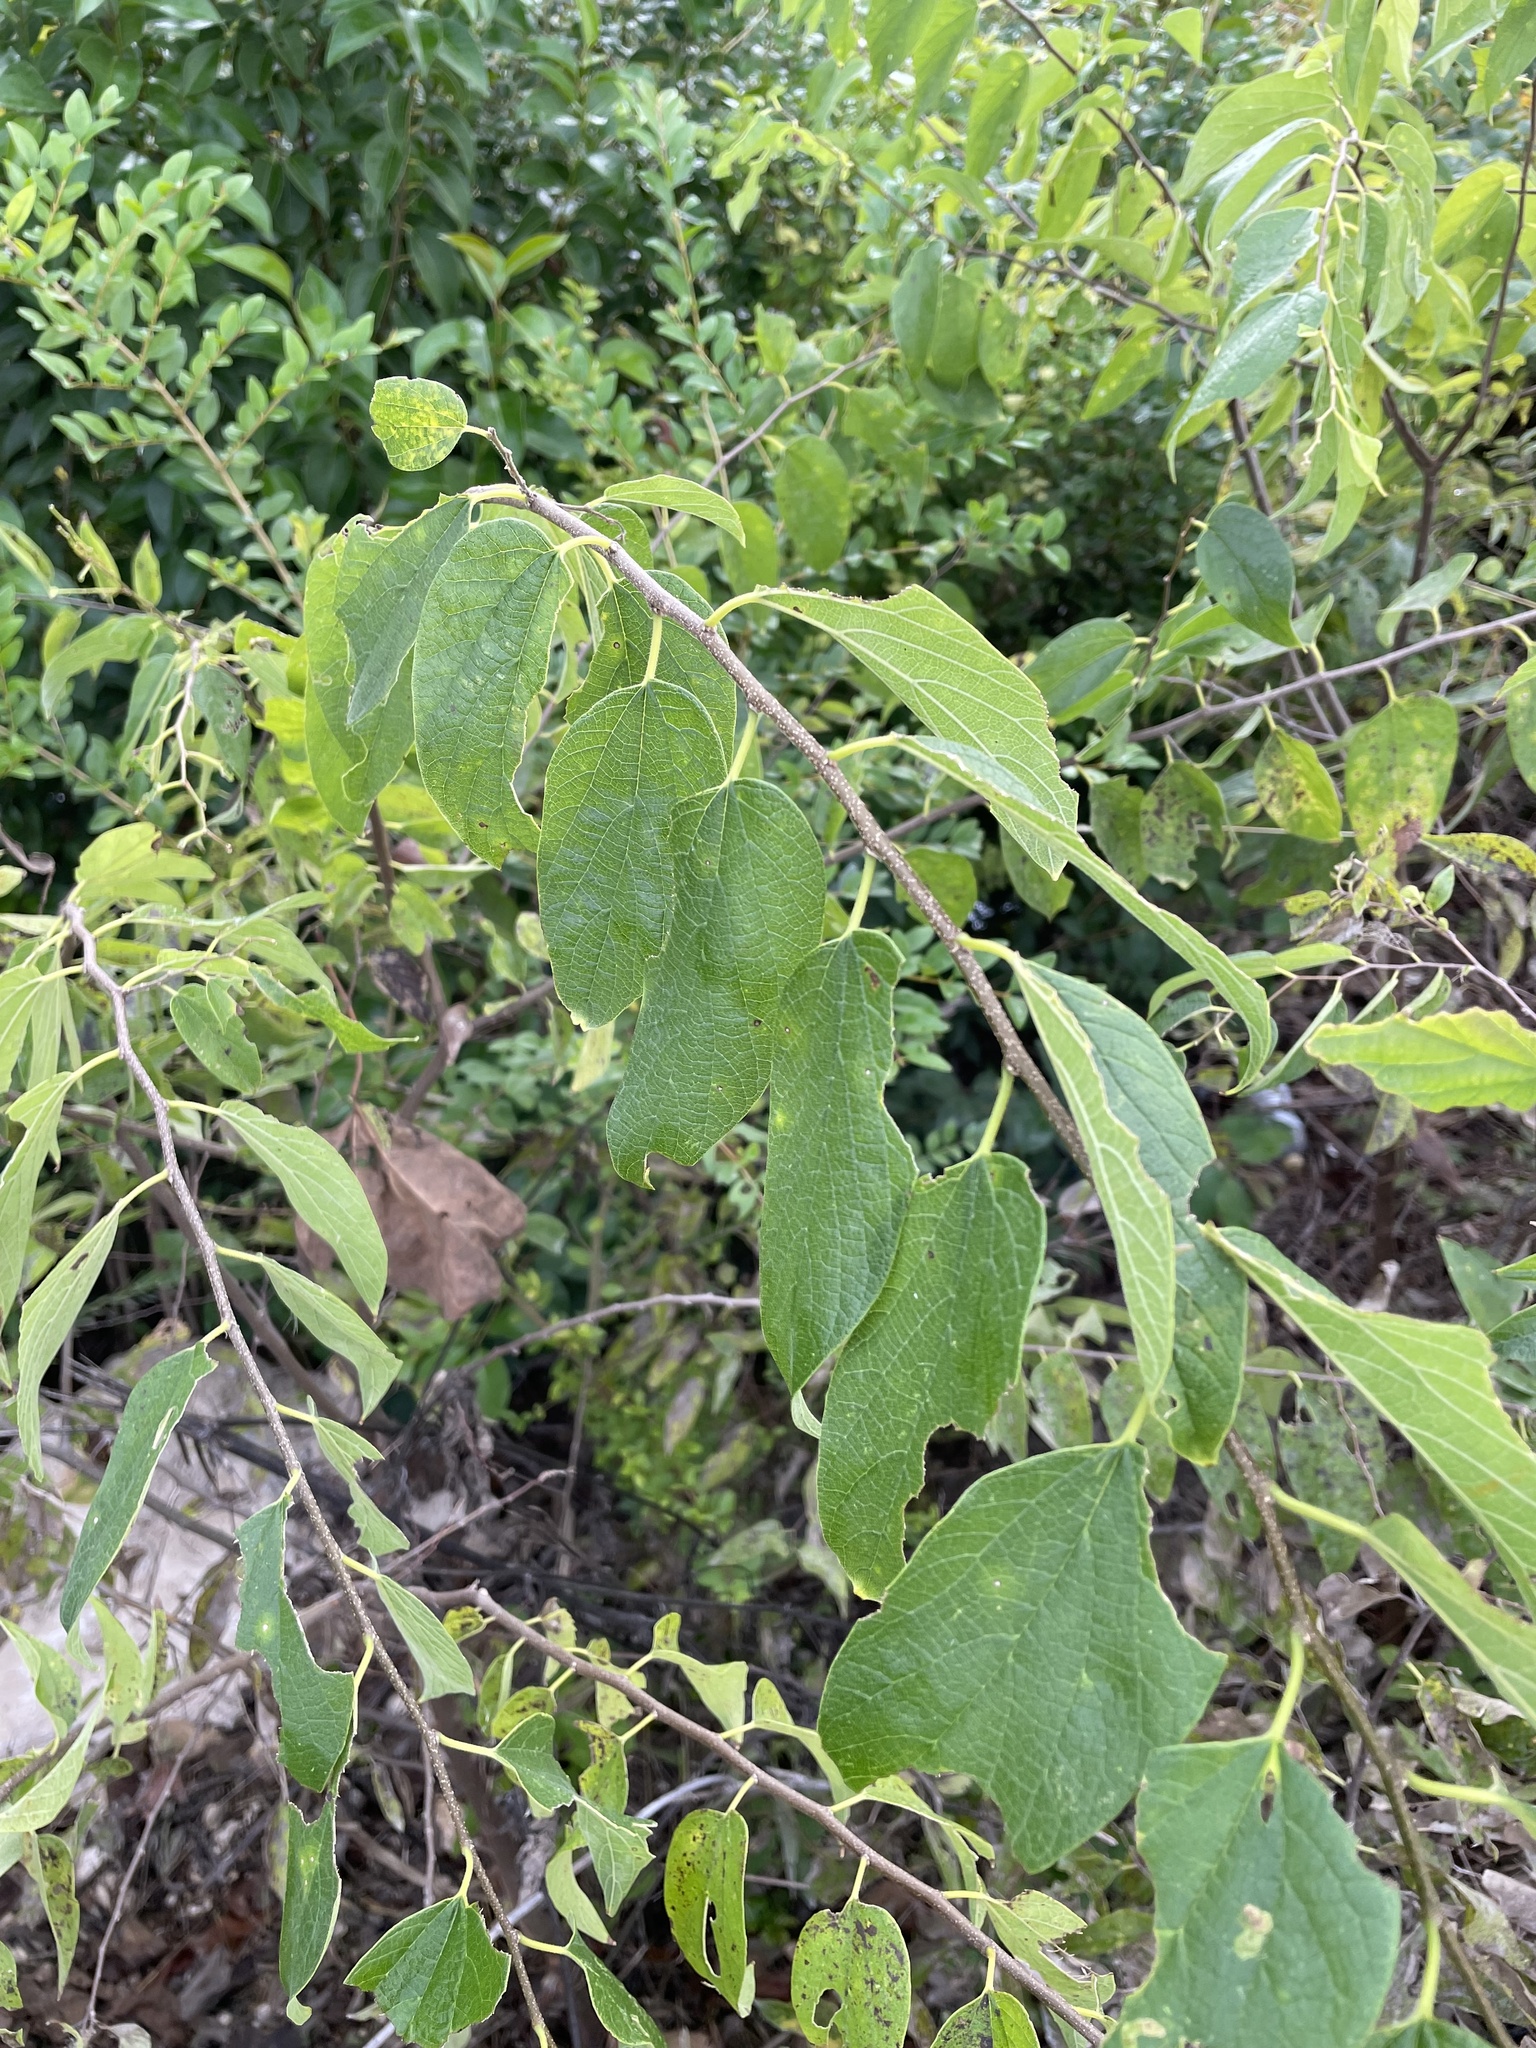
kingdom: Plantae
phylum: Tracheophyta
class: Magnoliopsida
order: Rosales
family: Cannabaceae
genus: Celtis
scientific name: Celtis laevigata
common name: Sugarberry
